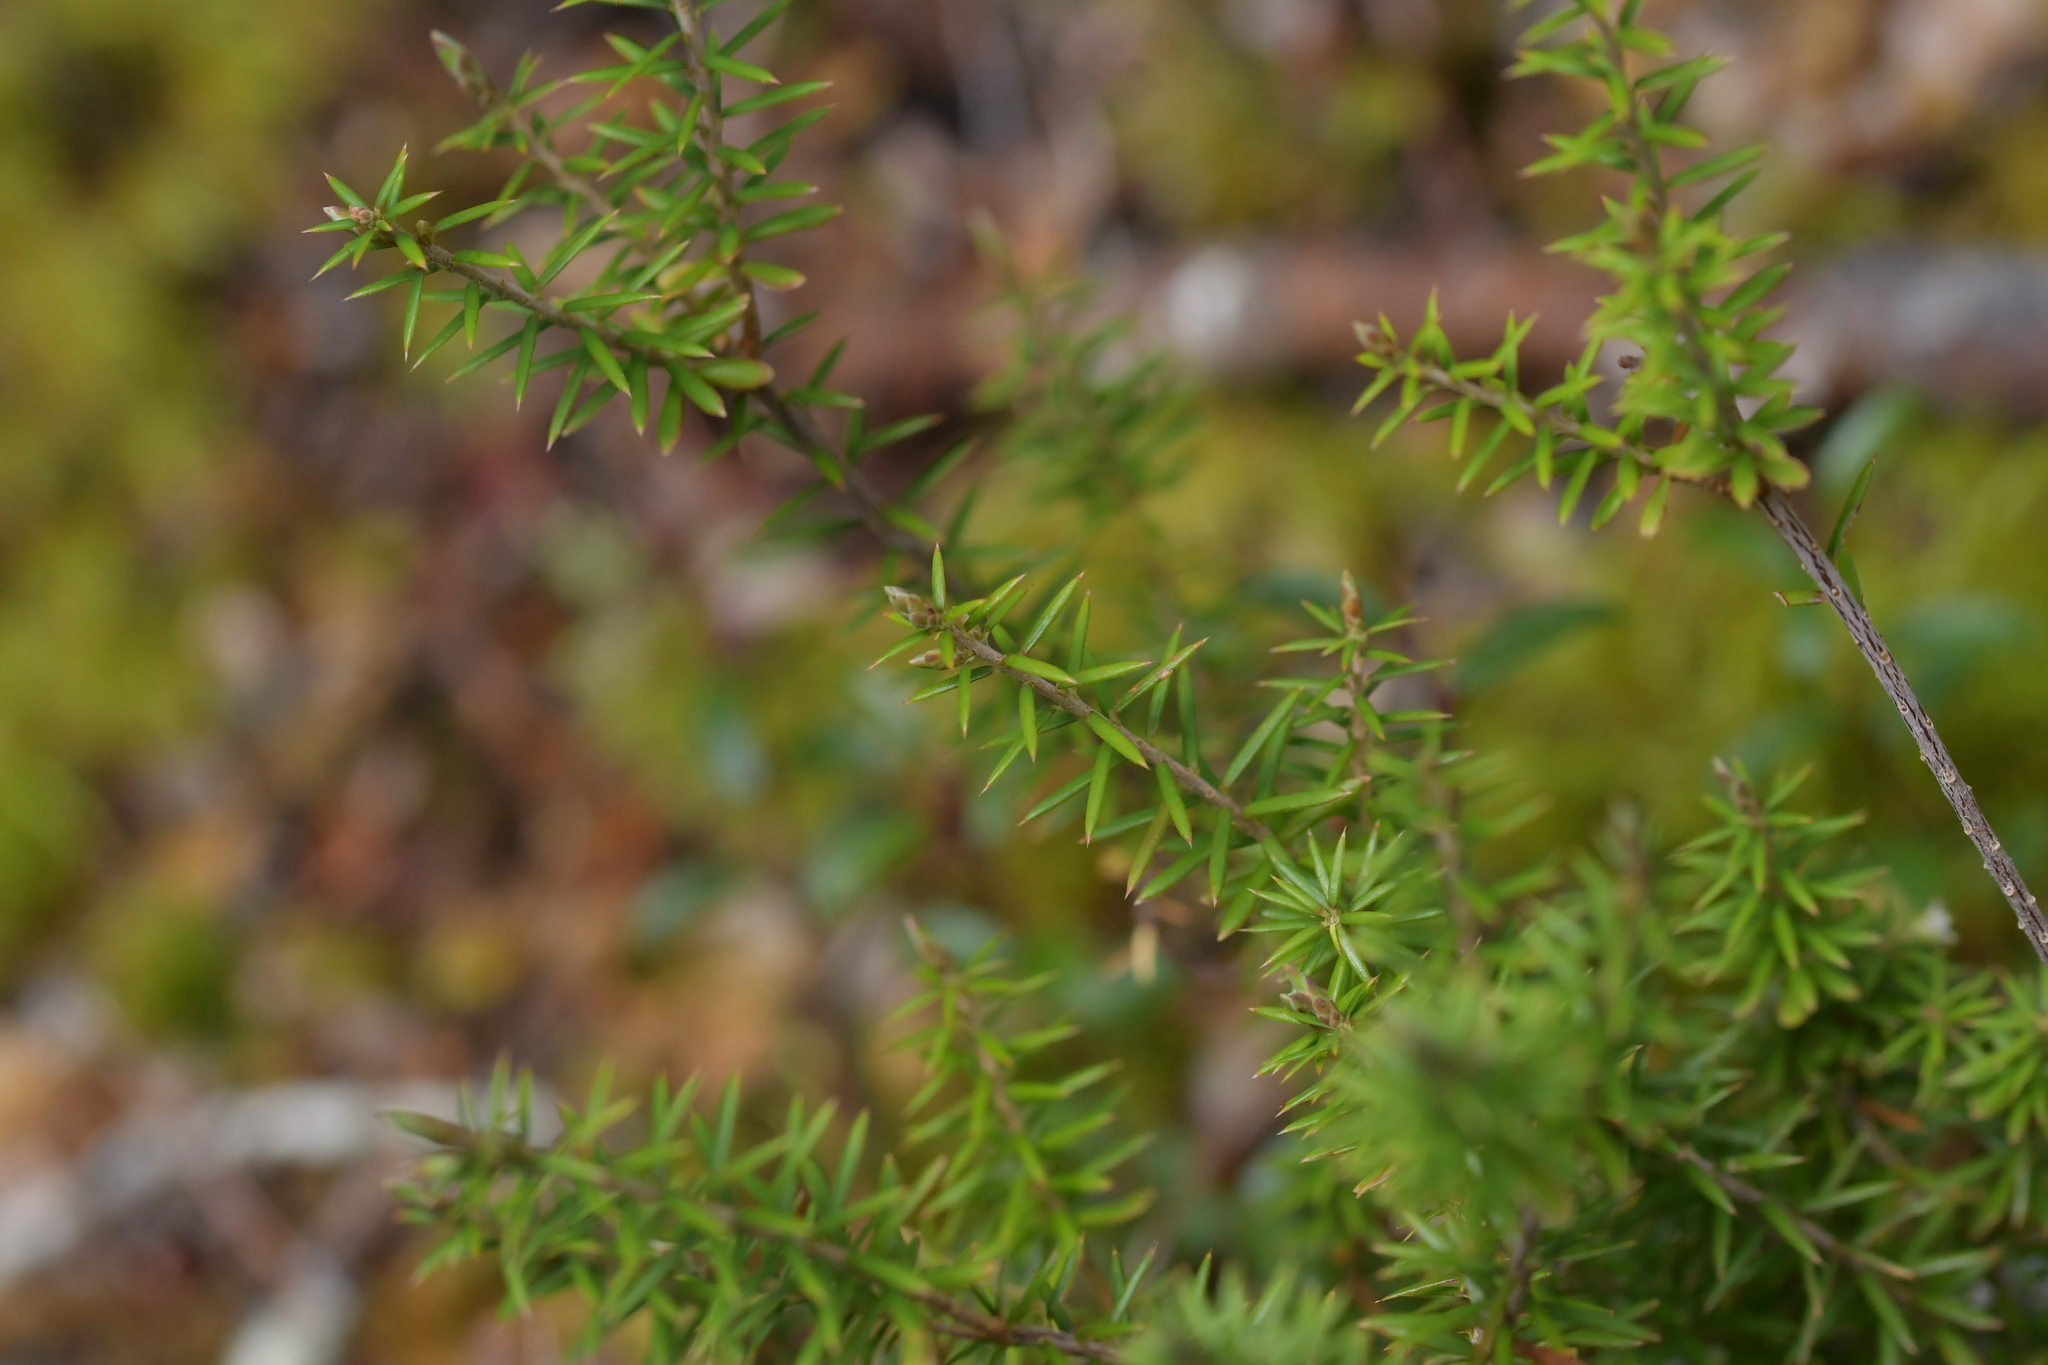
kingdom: Plantae
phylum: Tracheophyta
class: Magnoliopsida
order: Ericales
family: Ericaceae
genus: Leptecophylla
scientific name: Leptecophylla juniperina
